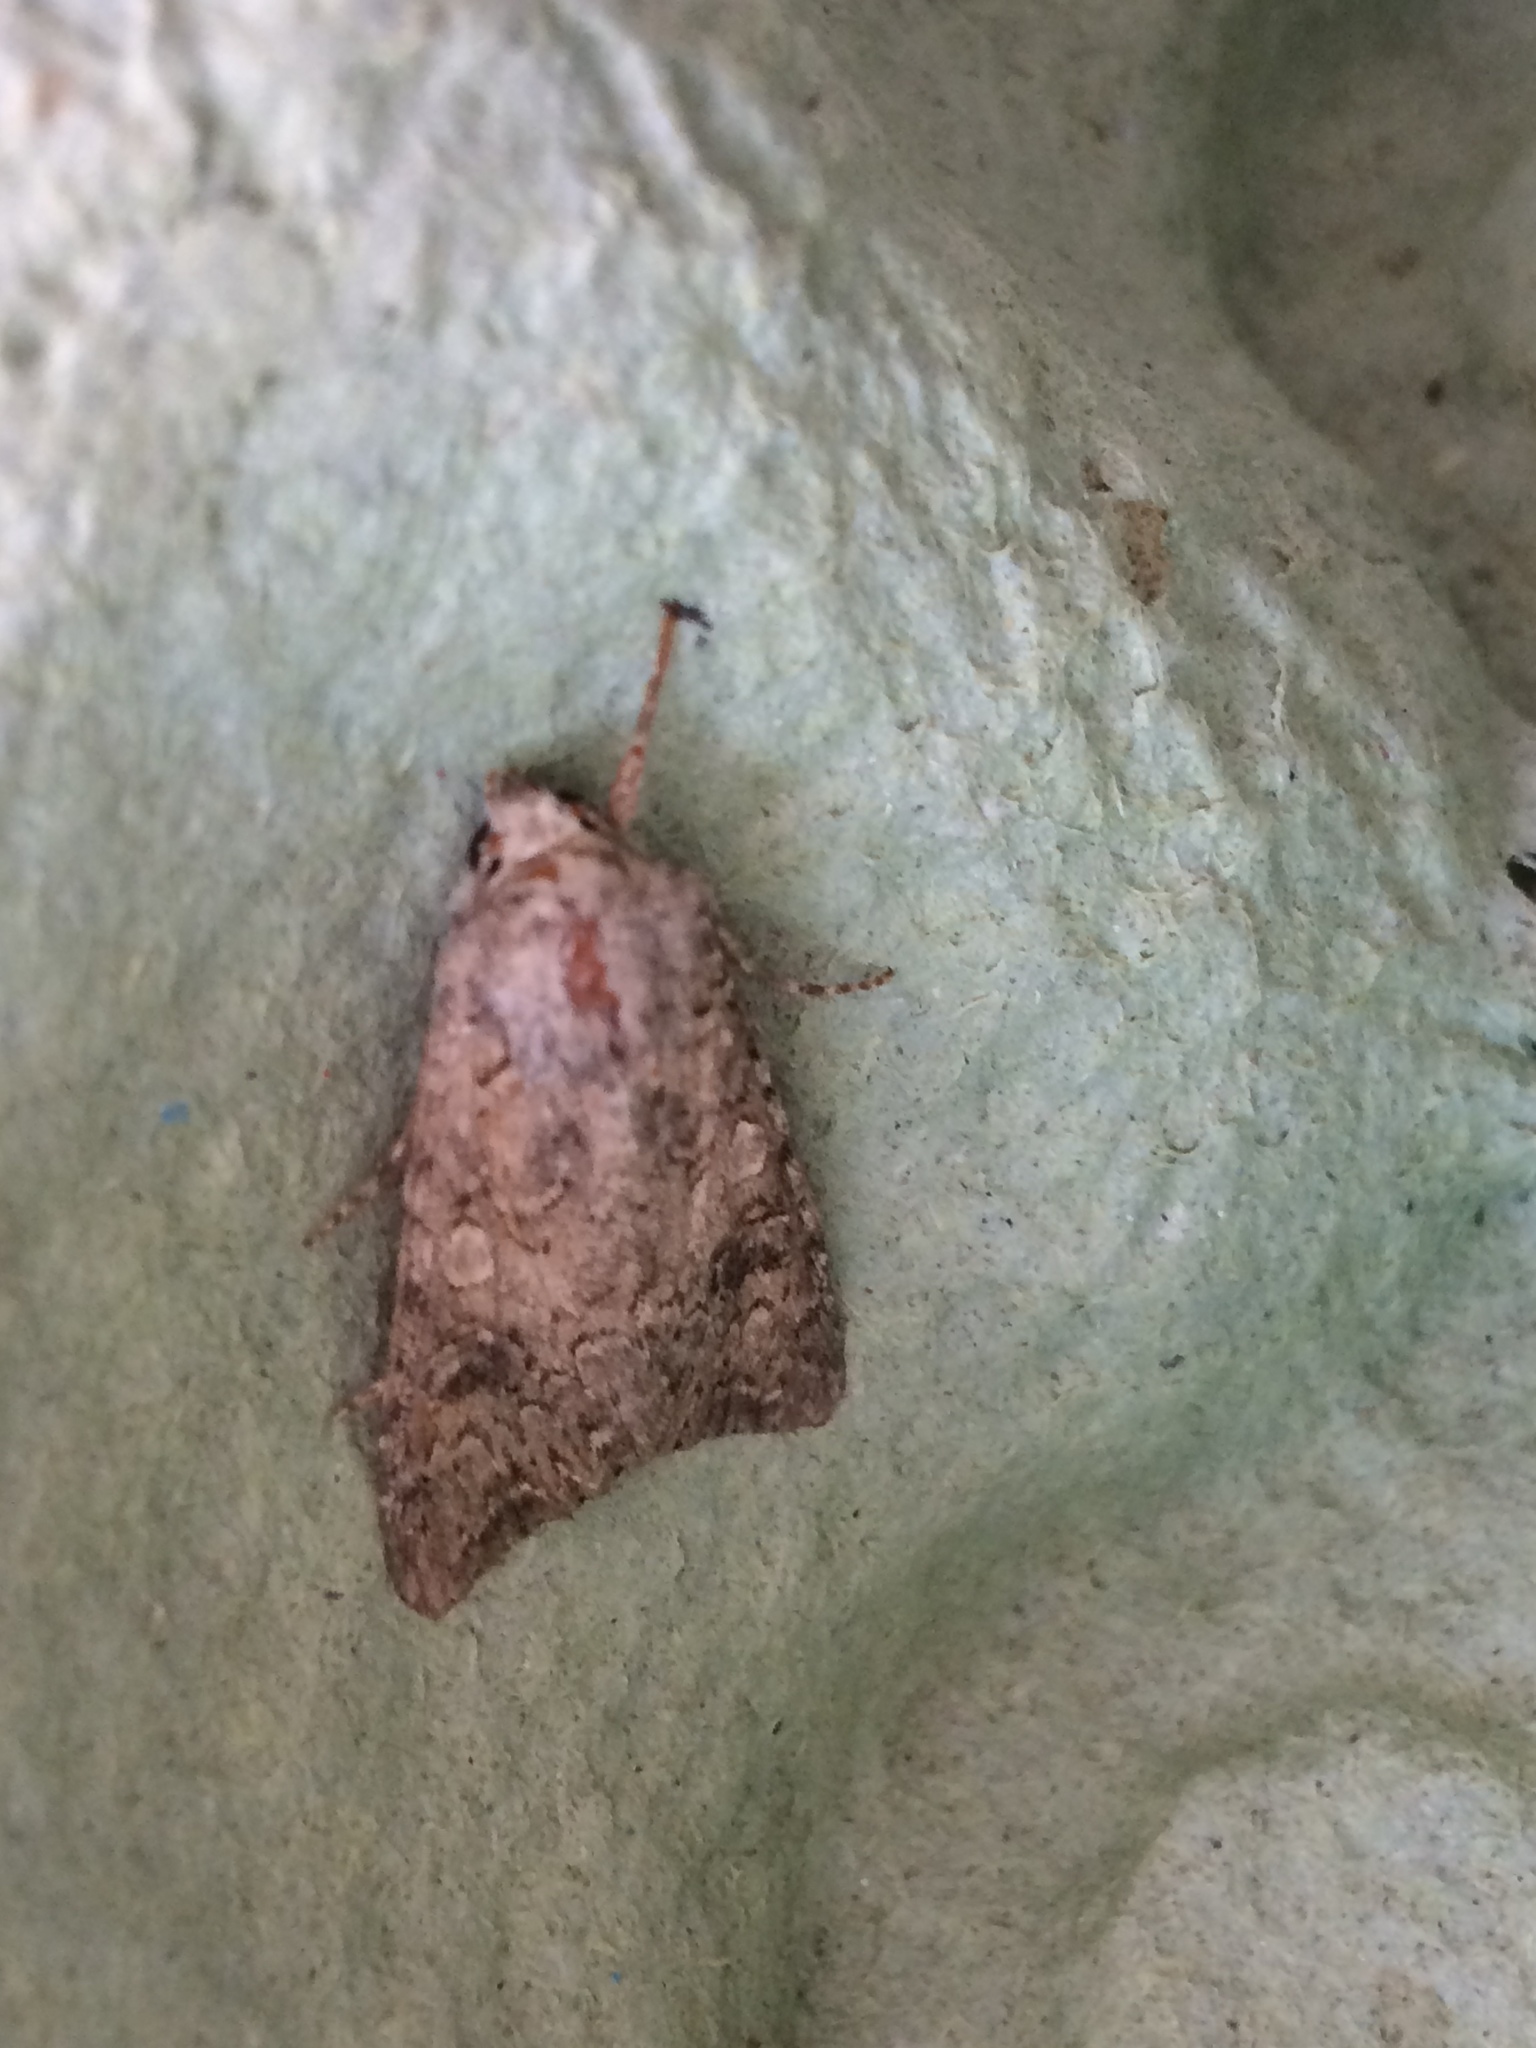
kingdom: Animalia
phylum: Arthropoda
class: Insecta
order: Lepidoptera
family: Noctuidae
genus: Anarta
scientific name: Anarta trifolii
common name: Clover cutworm moth
